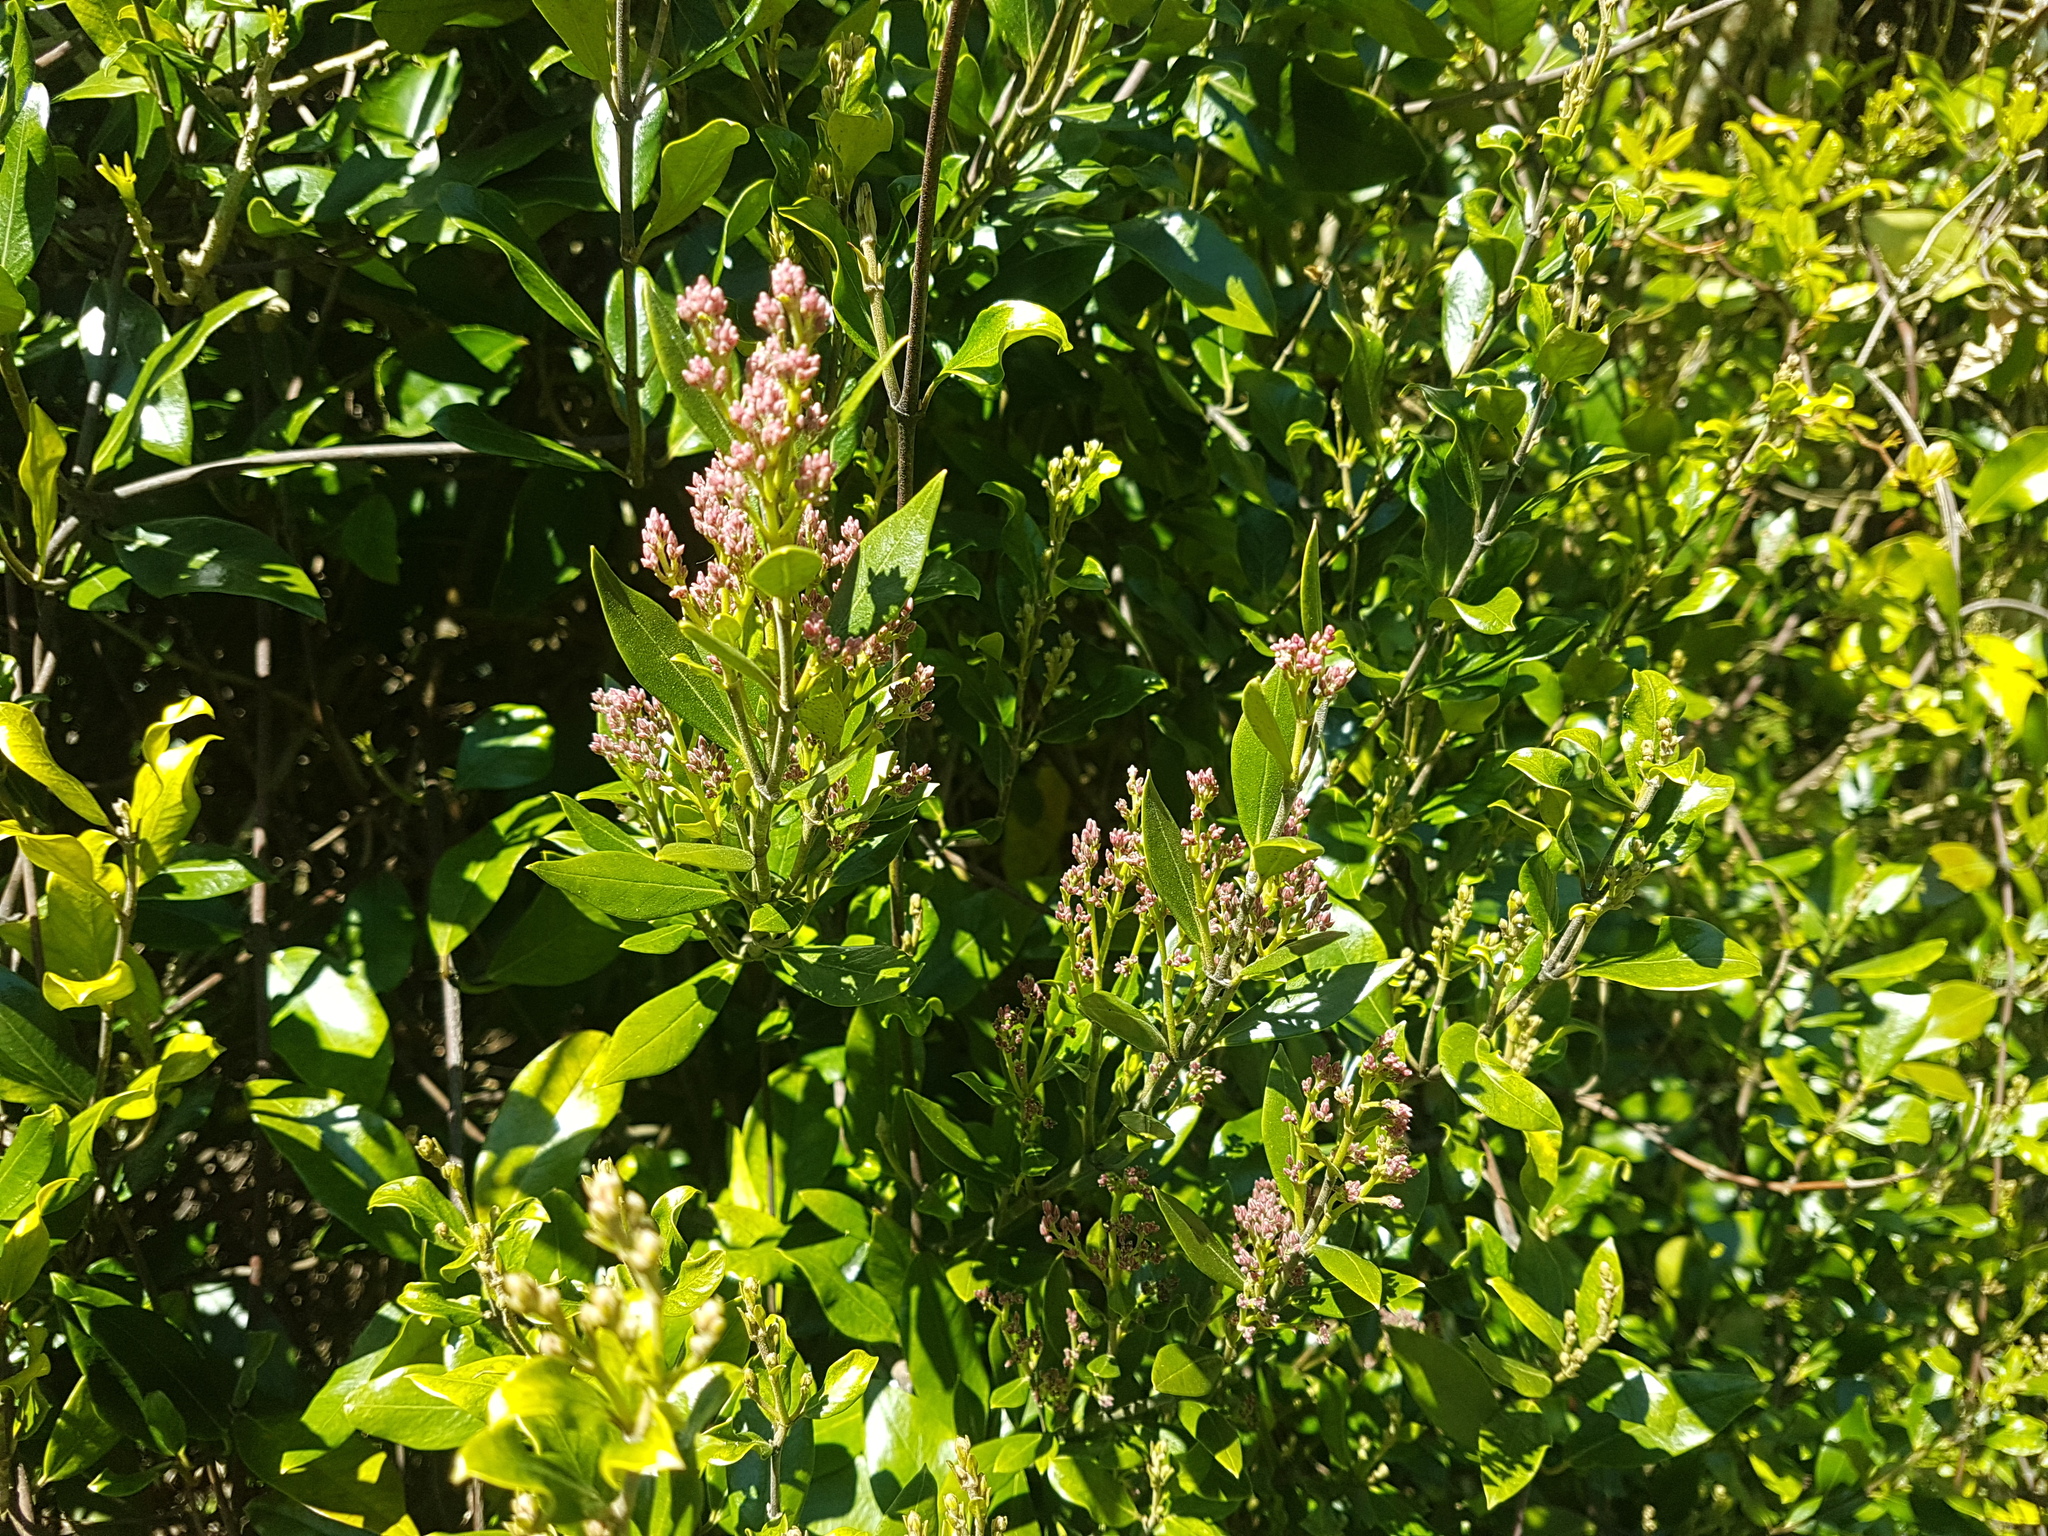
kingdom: Plantae
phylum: Tracheophyta
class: Magnoliopsida
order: Gentianales
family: Apocynaceae
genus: Parsonsia
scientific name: Parsonsia heterophylla
